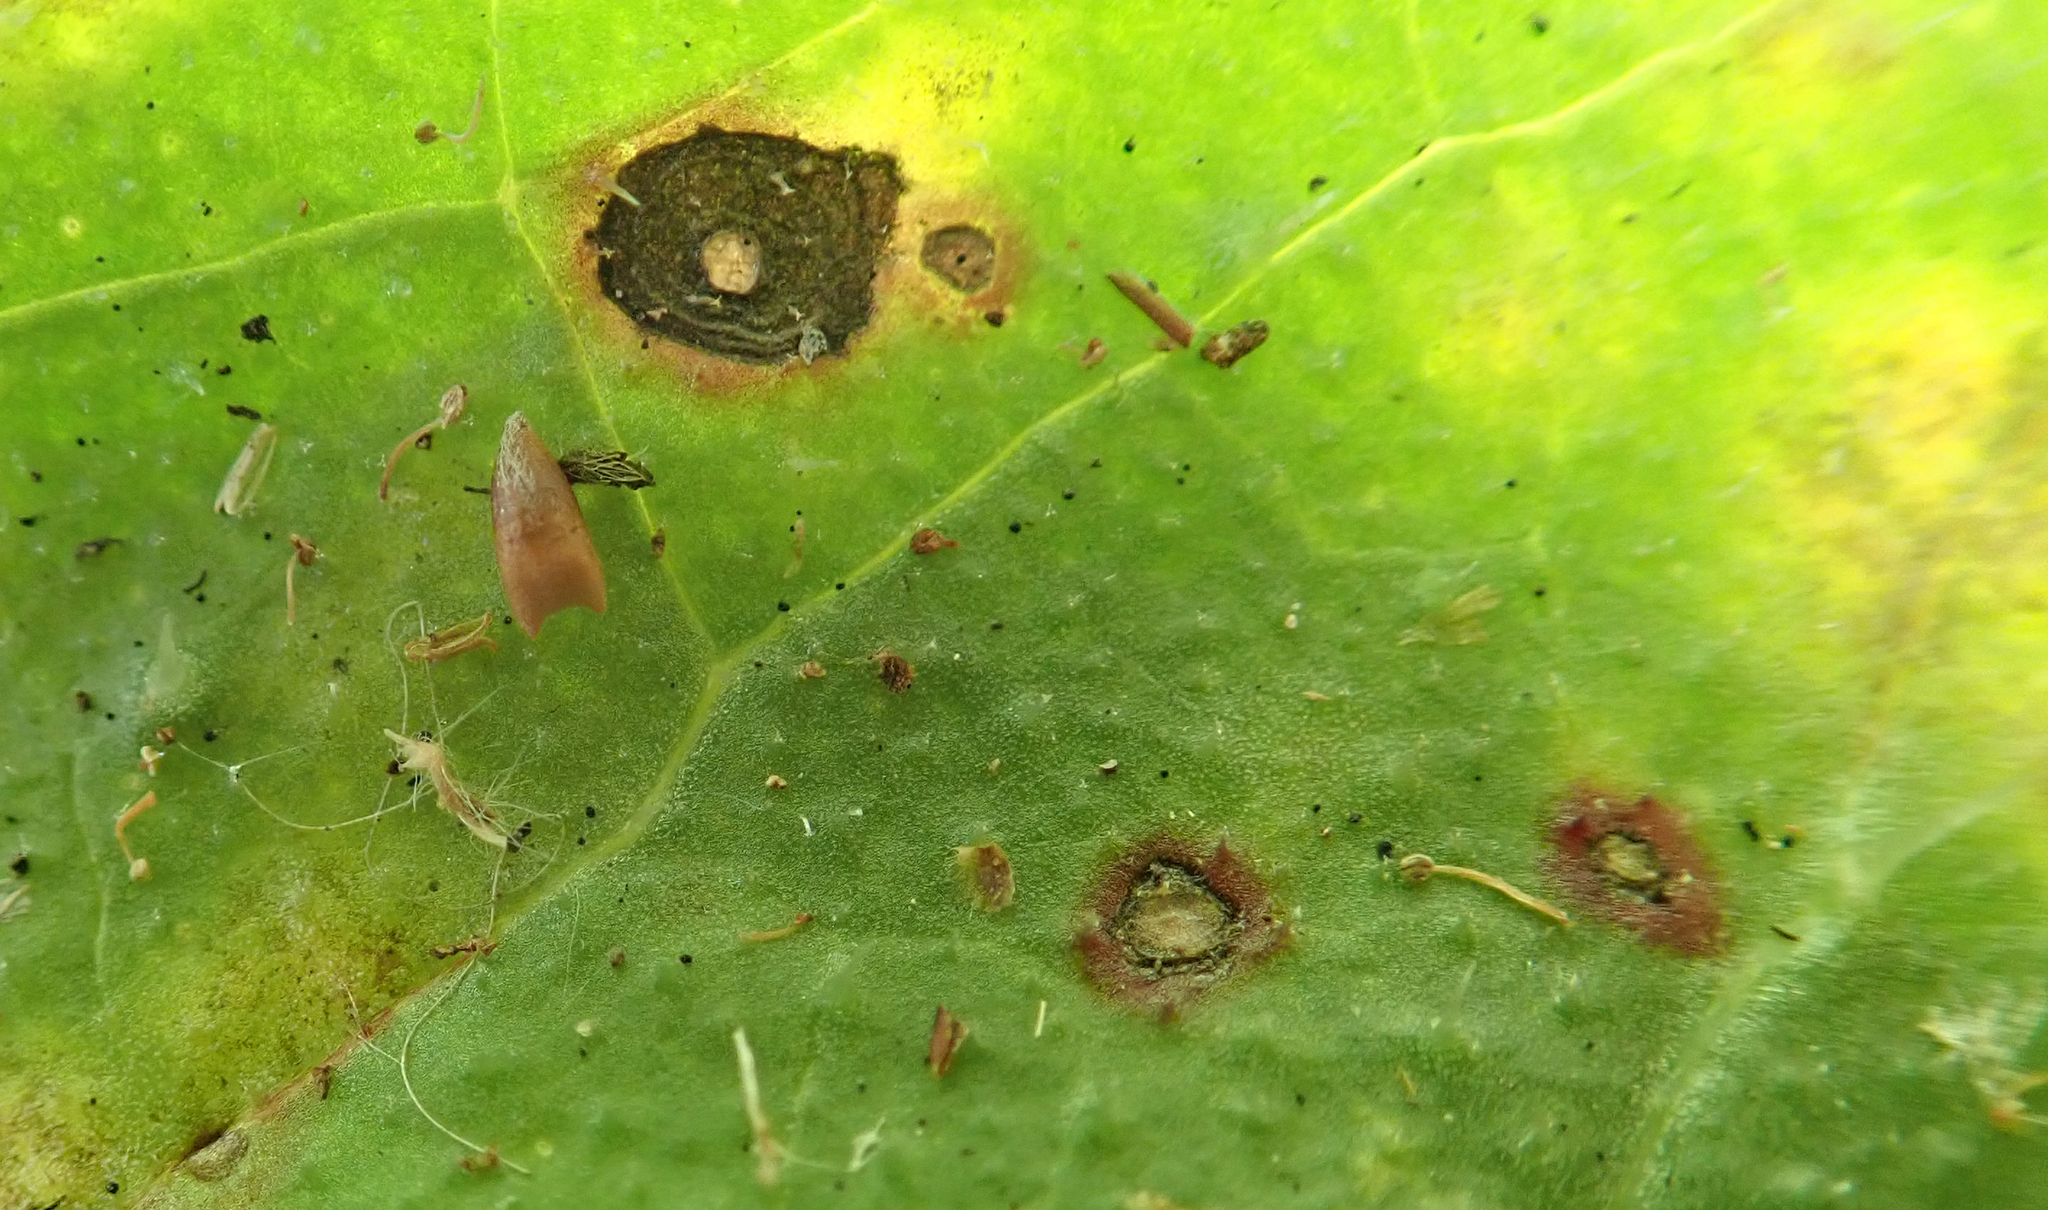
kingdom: Fungi
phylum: Ascomycota
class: Dothideomycetes
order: Capnodiales
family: Mycosphaerellaceae
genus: Ramularia
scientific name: Ramularia helminthiae
